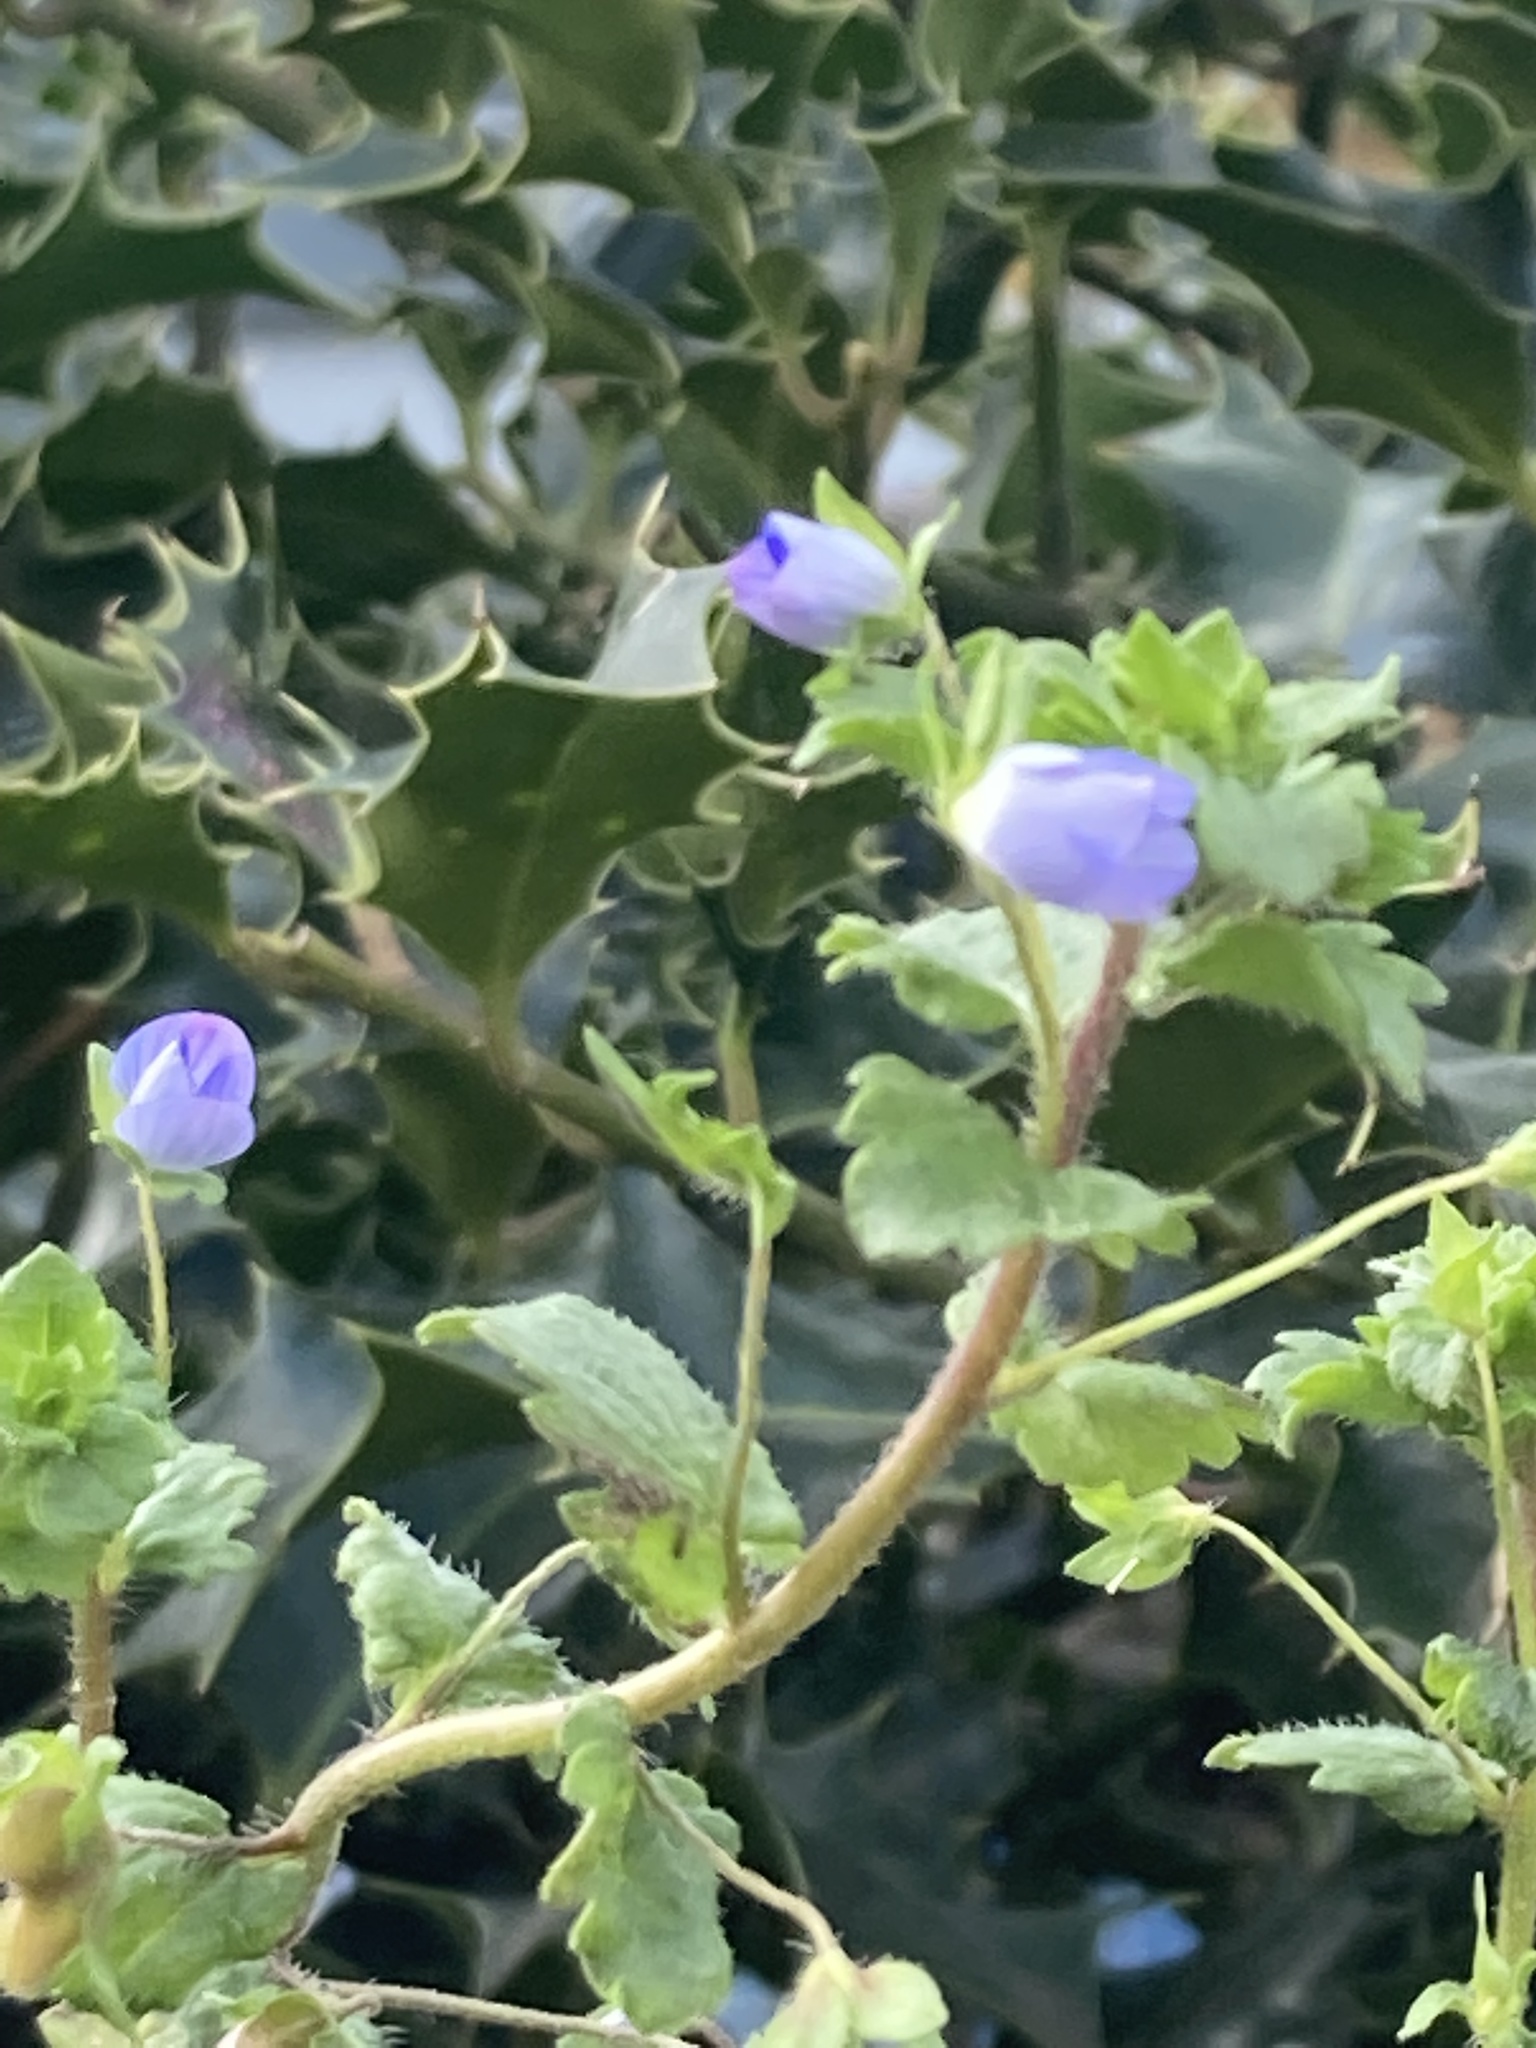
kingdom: Plantae
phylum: Tracheophyta
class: Magnoliopsida
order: Lamiales
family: Plantaginaceae
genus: Veronica
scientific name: Veronica persica
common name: Common field-speedwell
